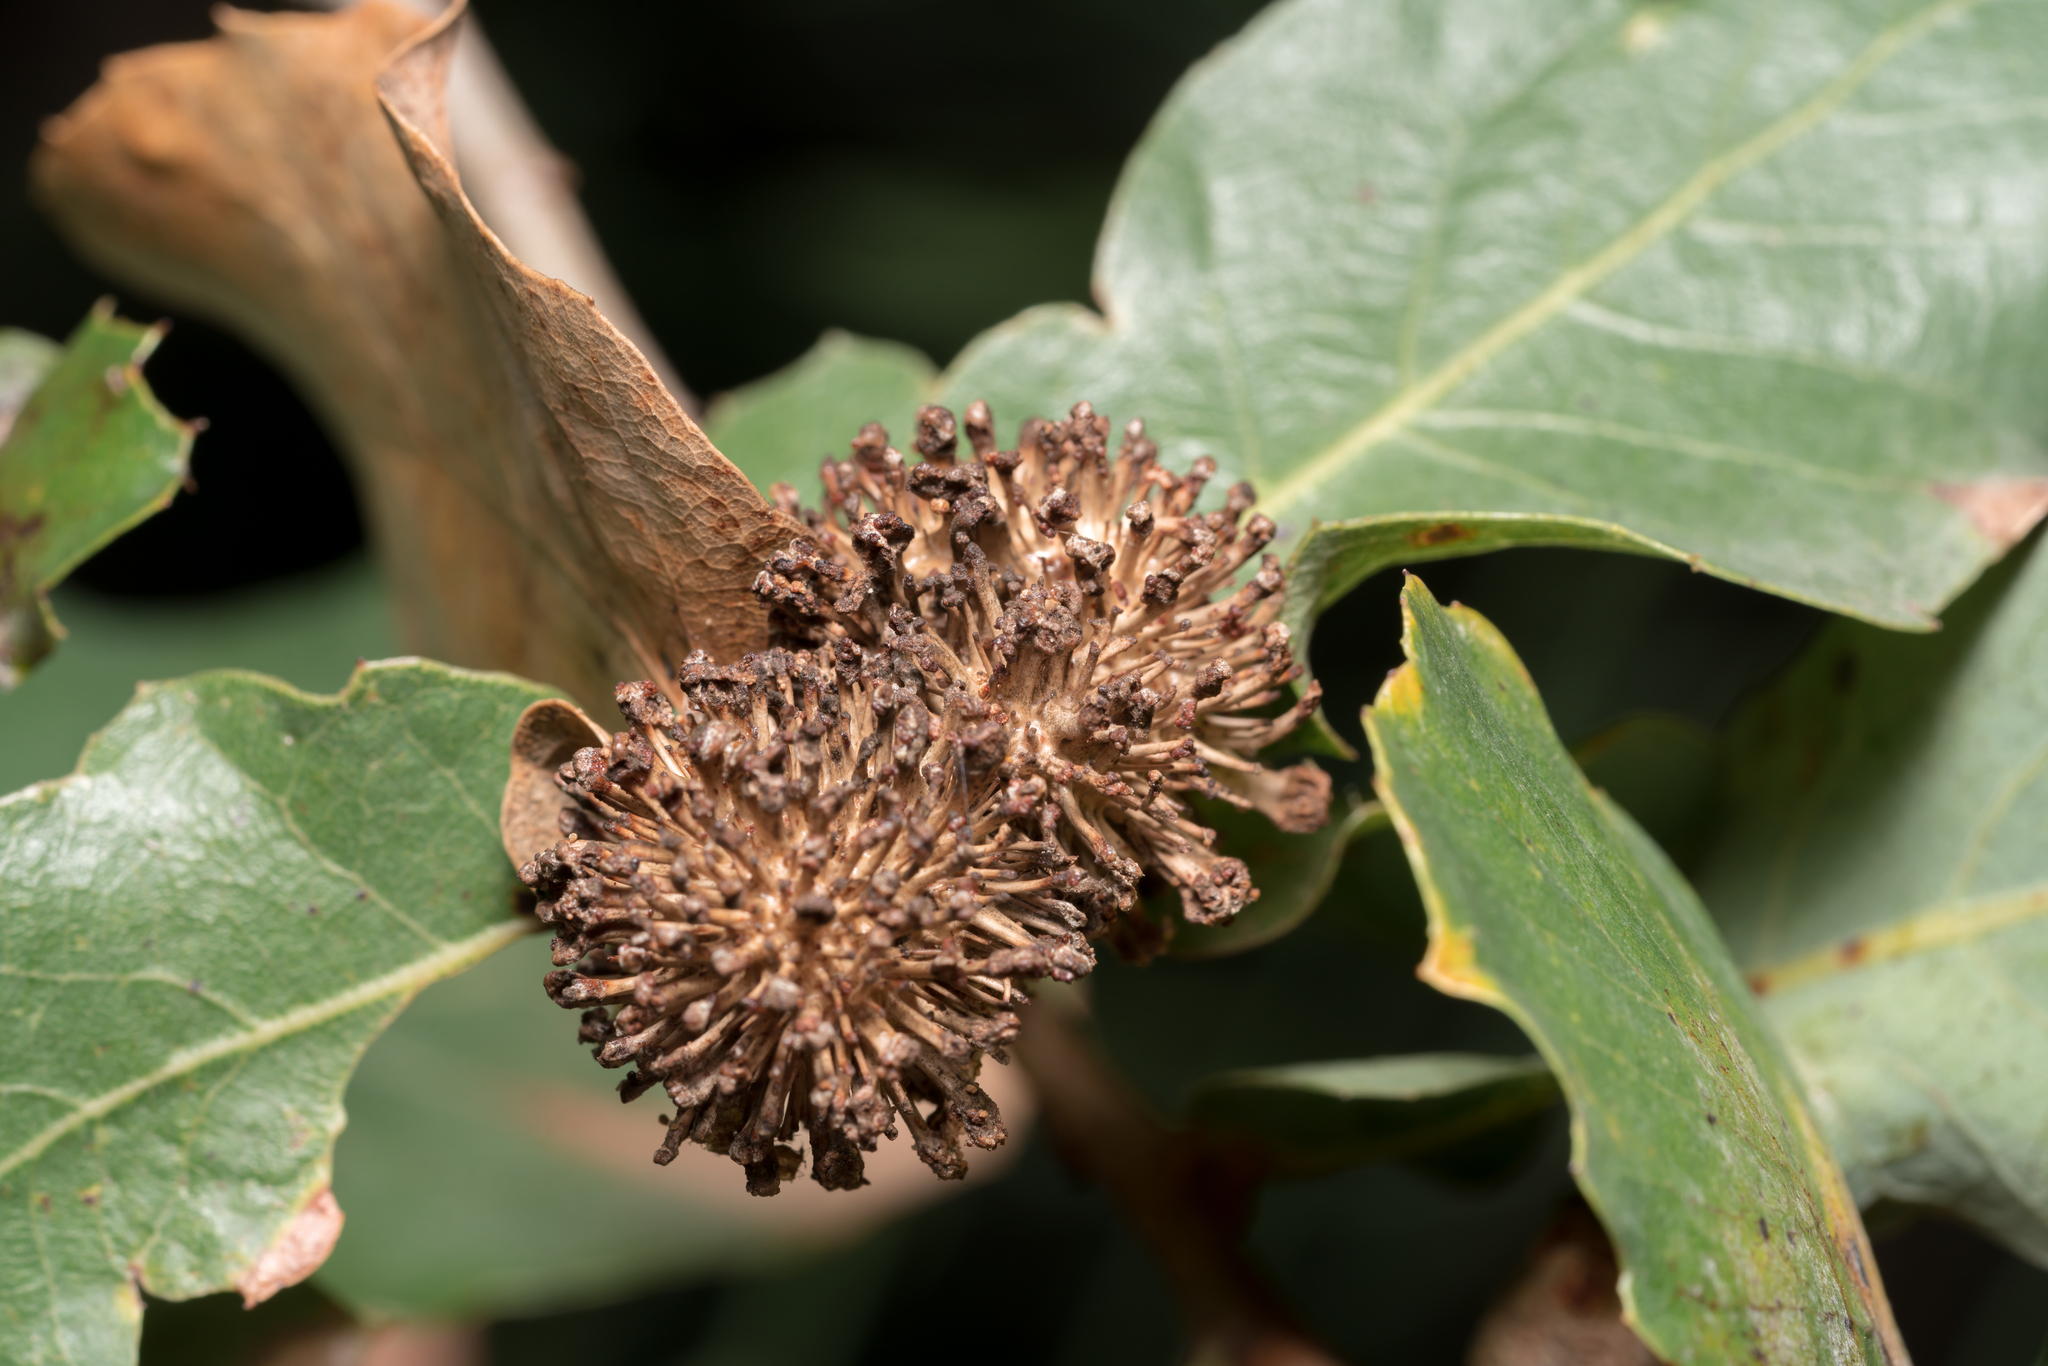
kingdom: Animalia
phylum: Arthropoda
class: Insecta
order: Hymenoptera
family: Cynipidae
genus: Andricus
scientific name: Andricus lucidus
